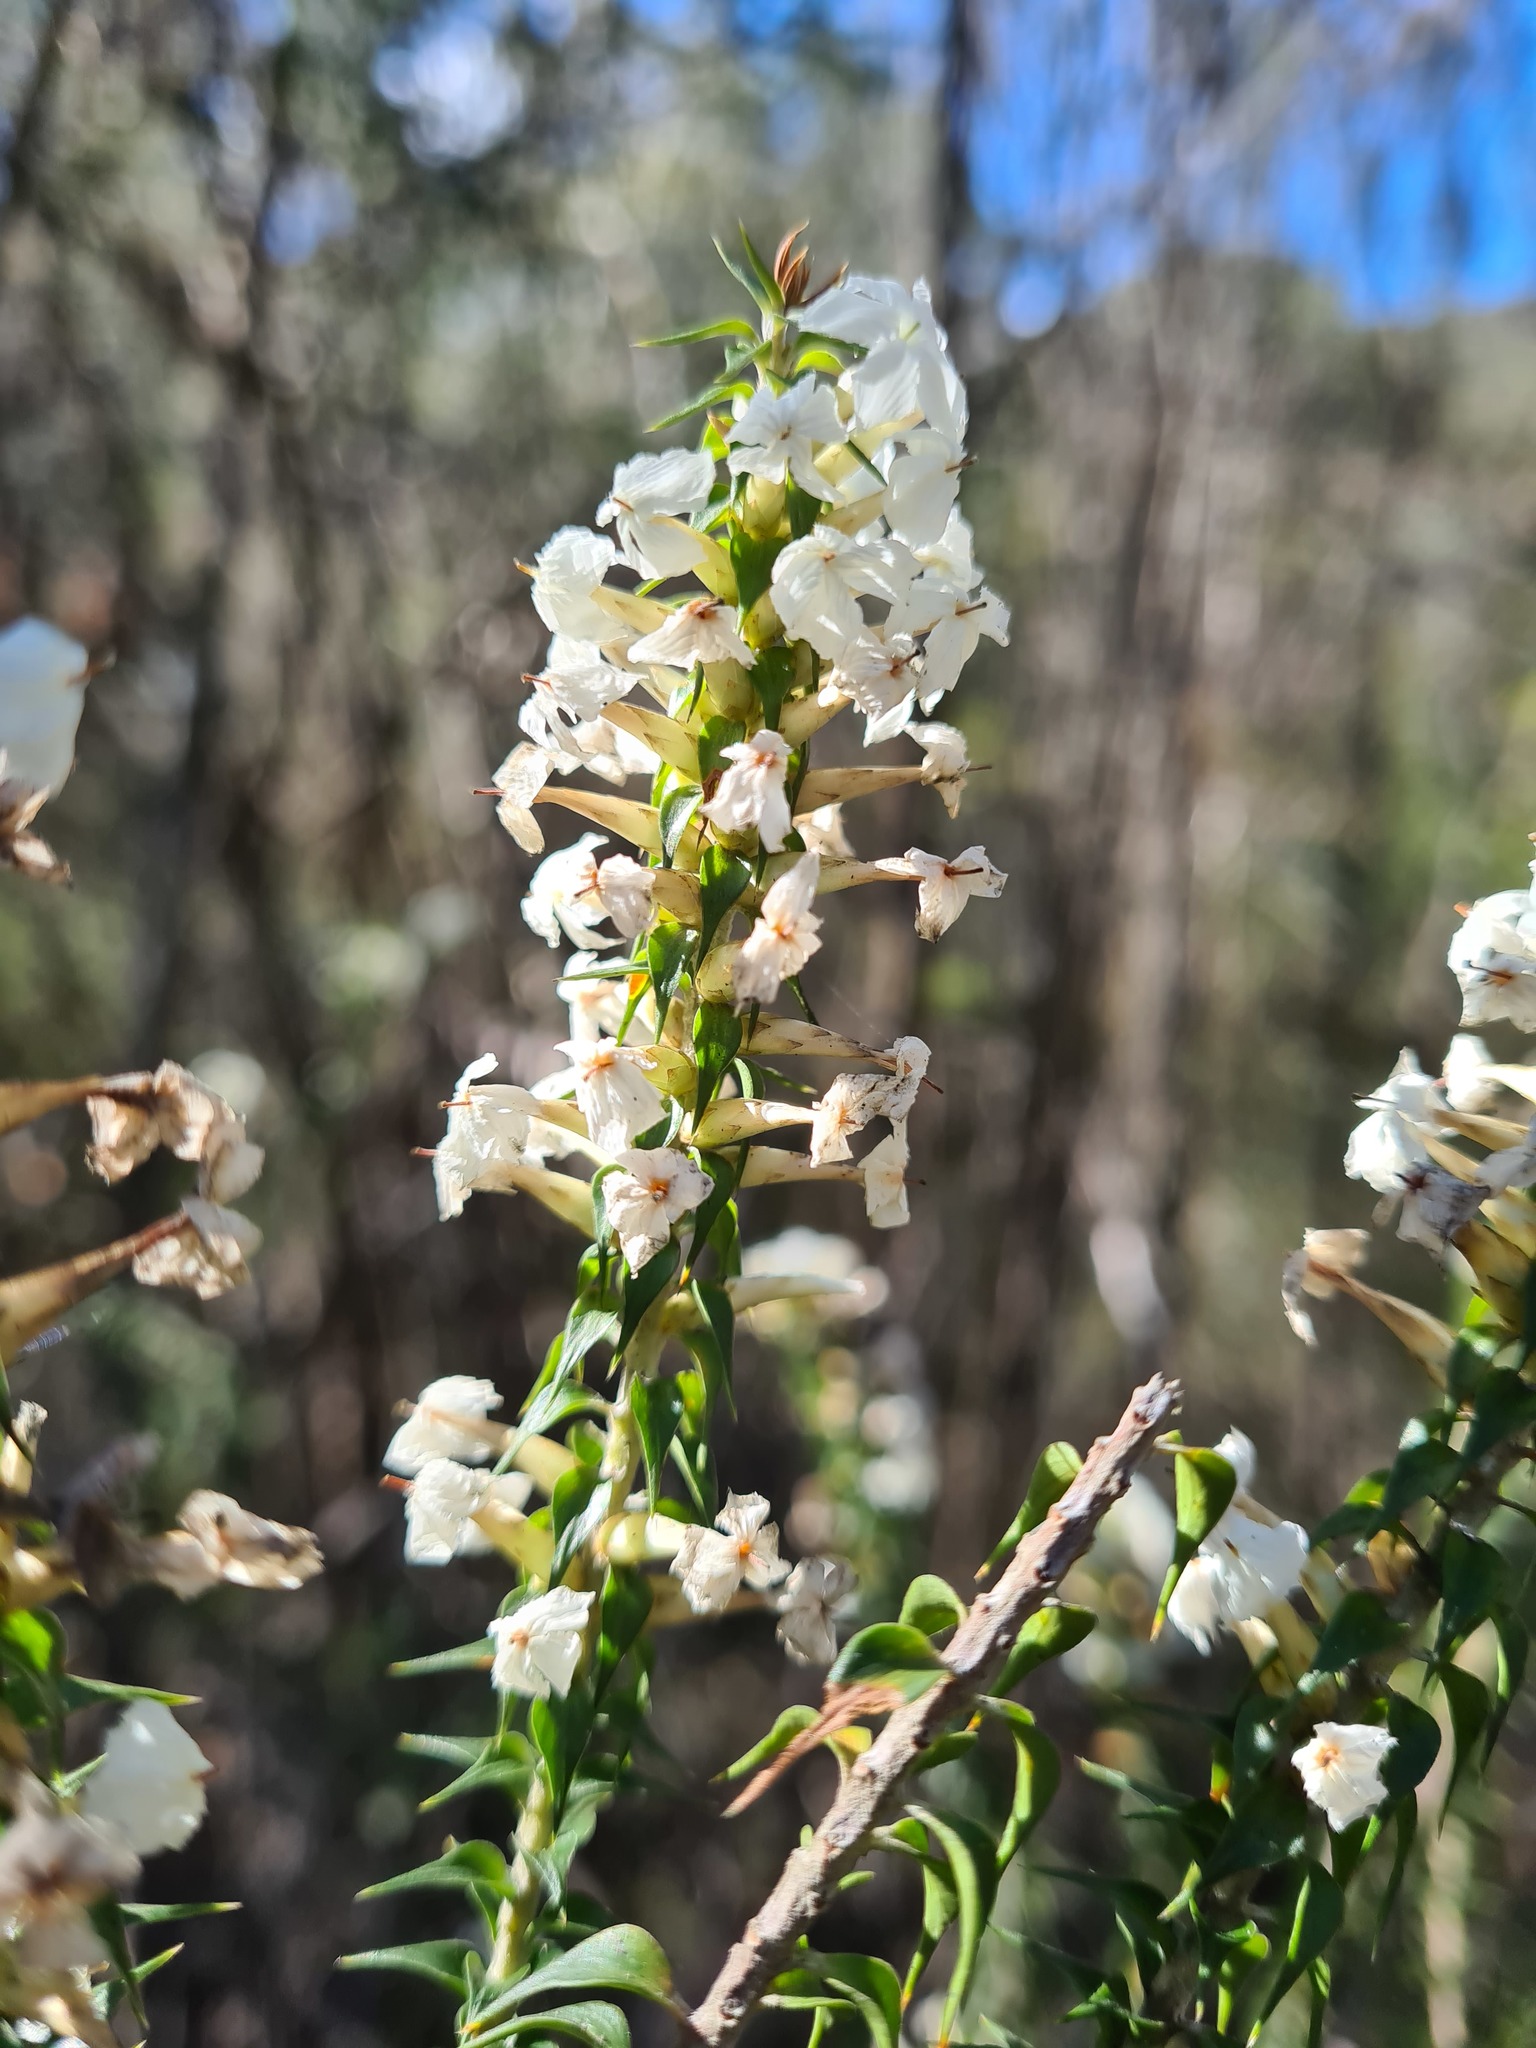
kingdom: Plantae
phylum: Tracheophyta
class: Magnoliopsida
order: Ericales
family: Ericaceae
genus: Woollsia
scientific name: Woollsia pungens
